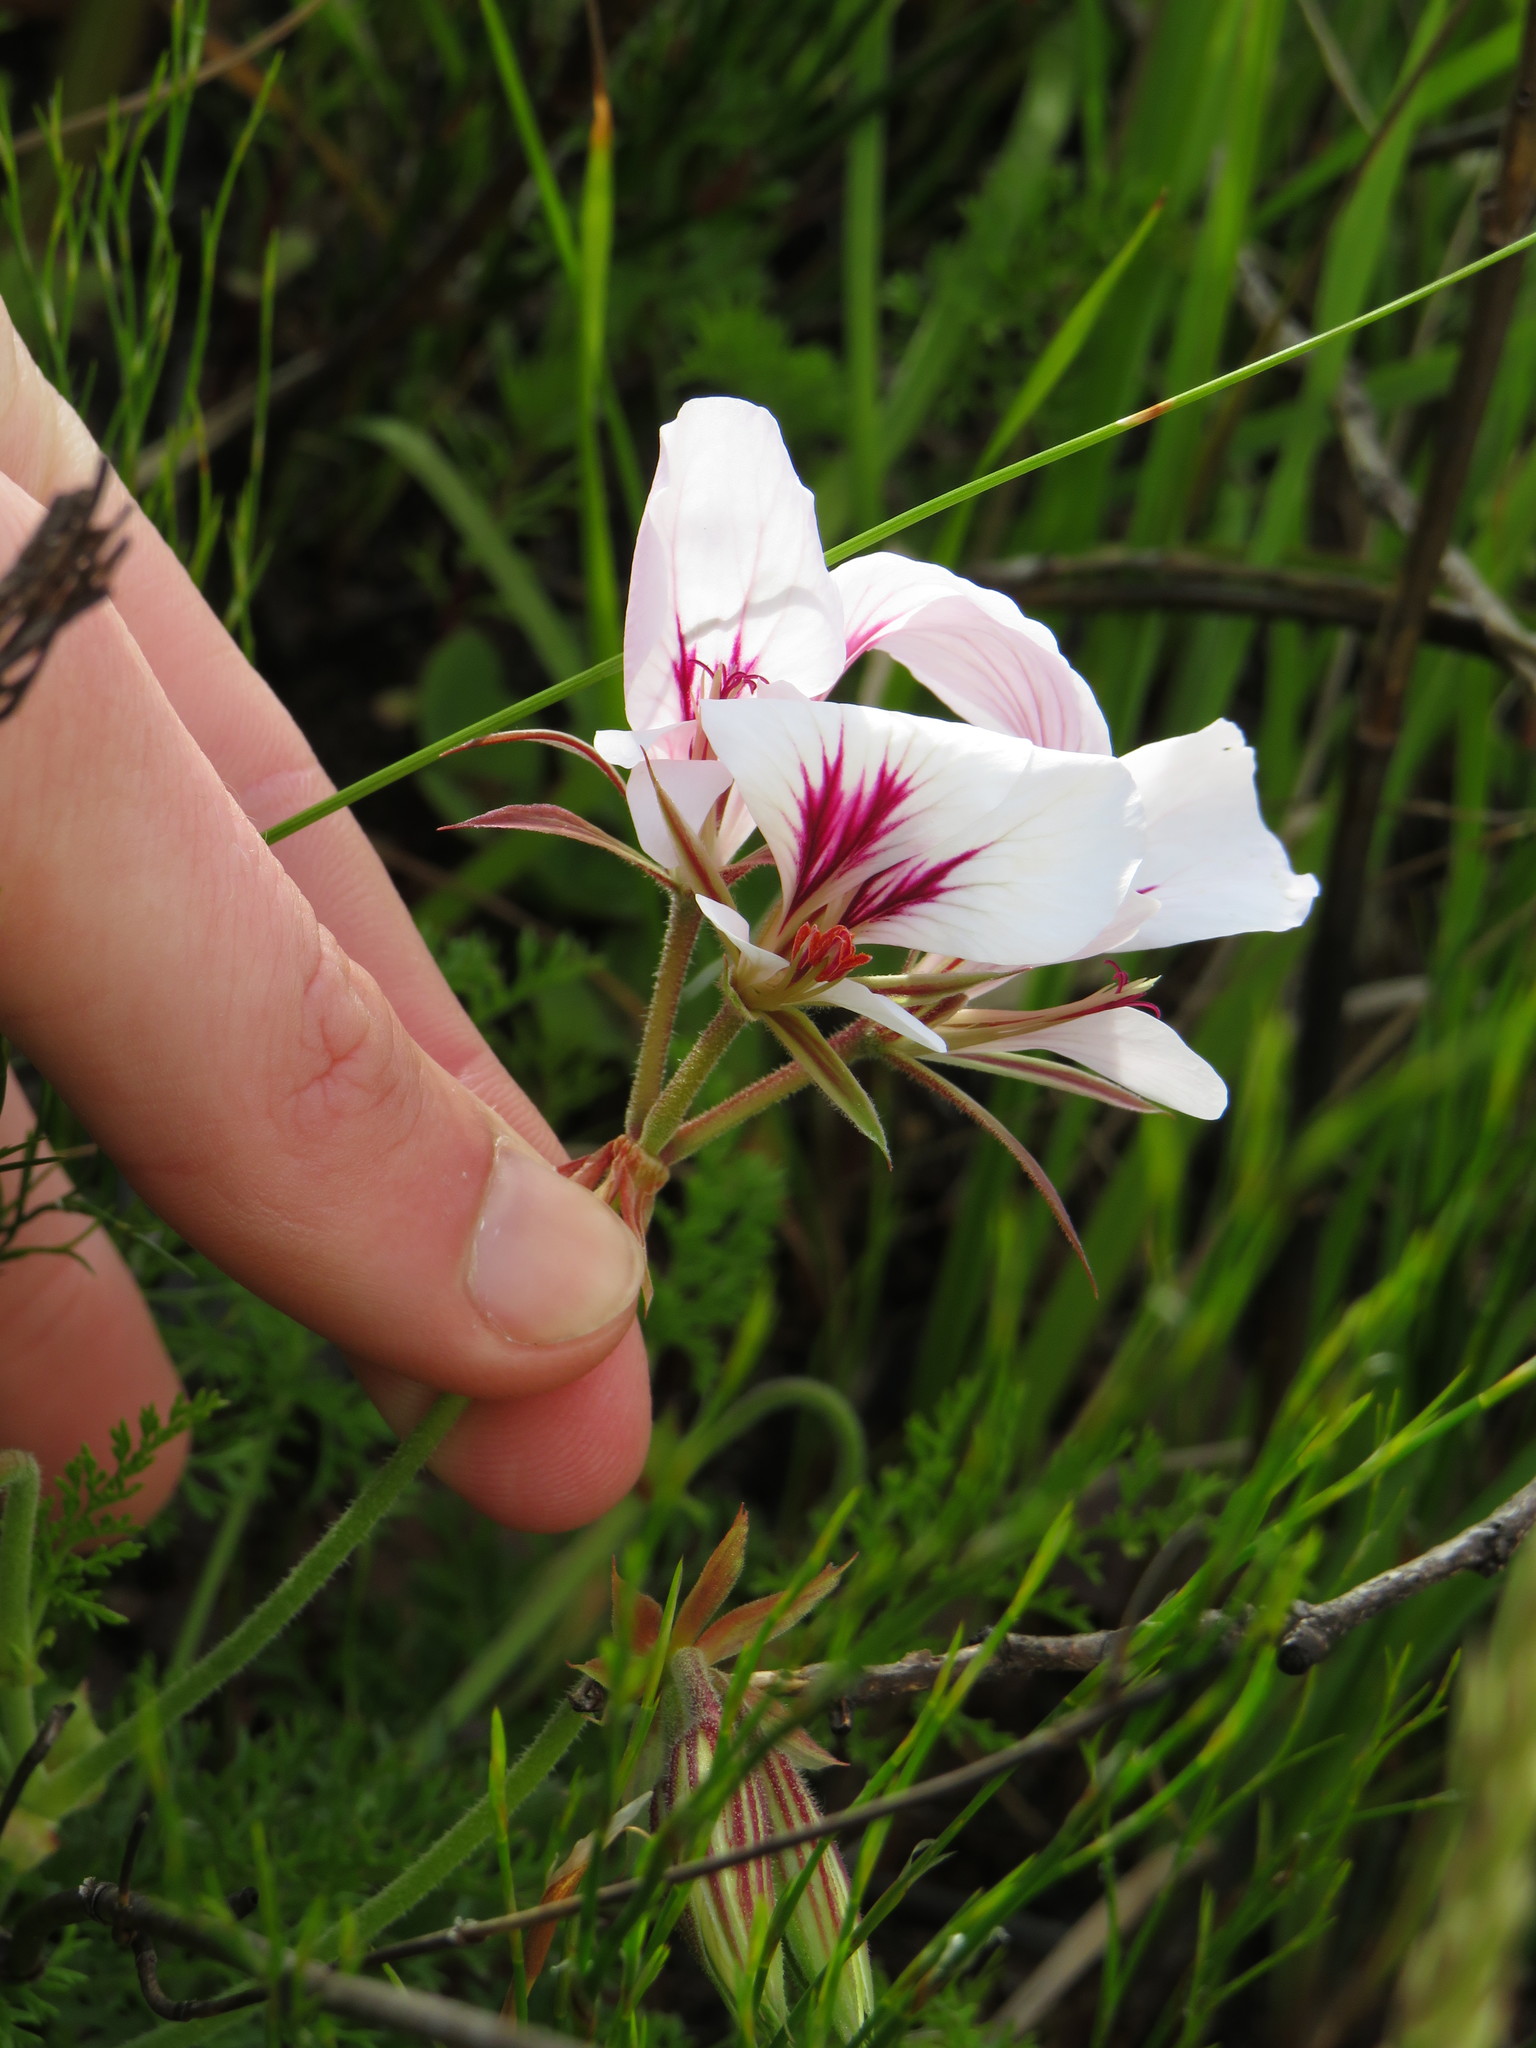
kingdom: Plantae
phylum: Tracheophyta
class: Magnoliopsida
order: Geraniales
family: Geraniaceae
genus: Pelargonium
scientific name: Pelargonium myrrhifolium
